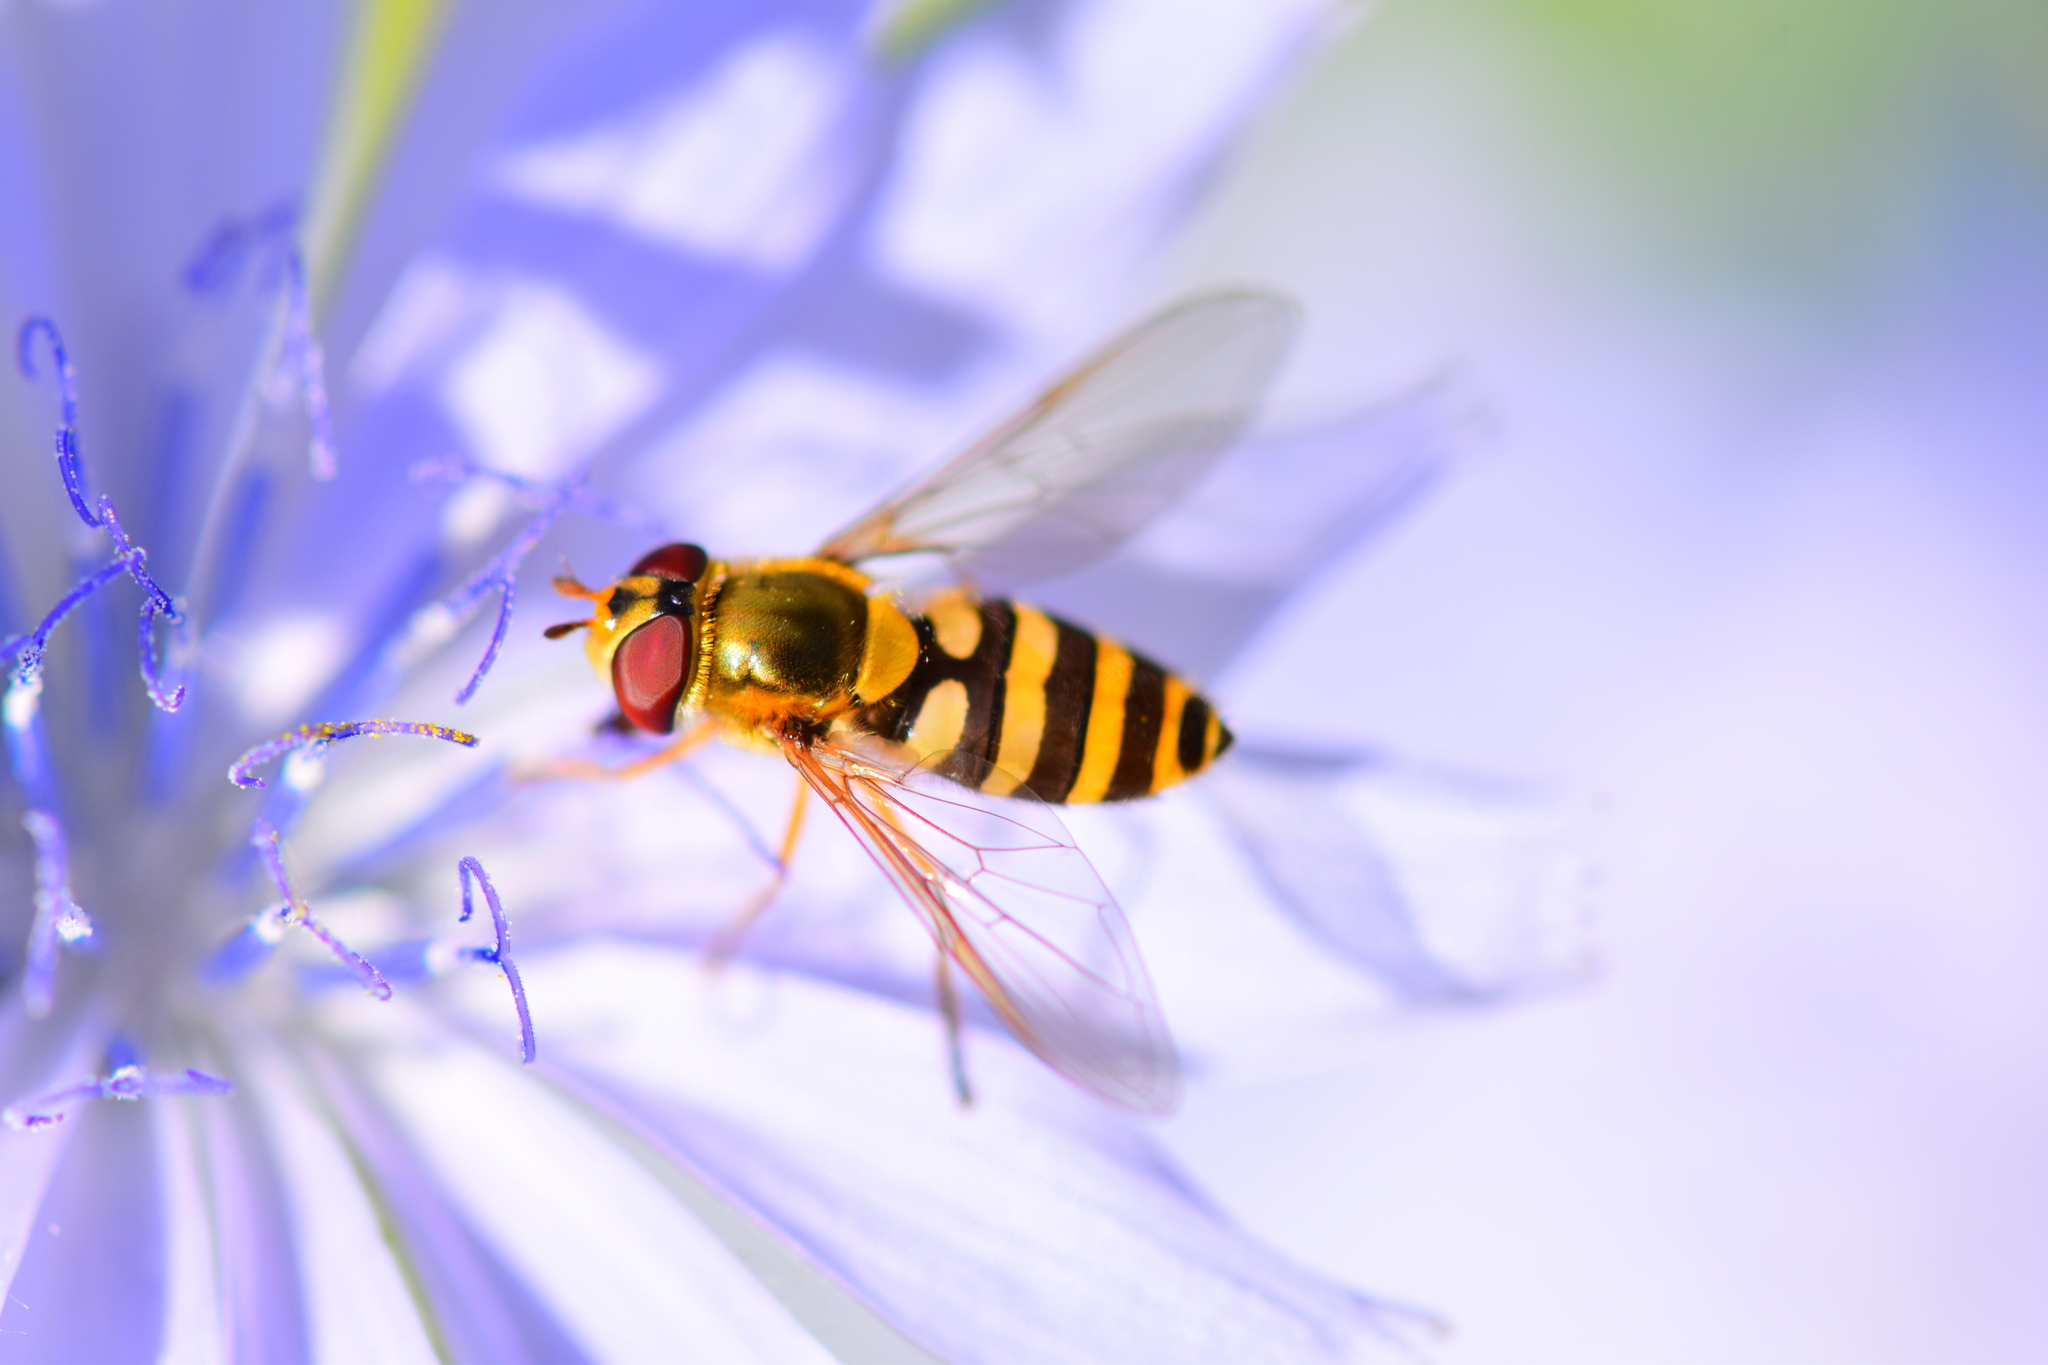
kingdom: Animalia
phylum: Arthropoda
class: Insecta
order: Diptera
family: Syrphidae
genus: Syrphus
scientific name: Syrphus ribesii
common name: Common flower fly
